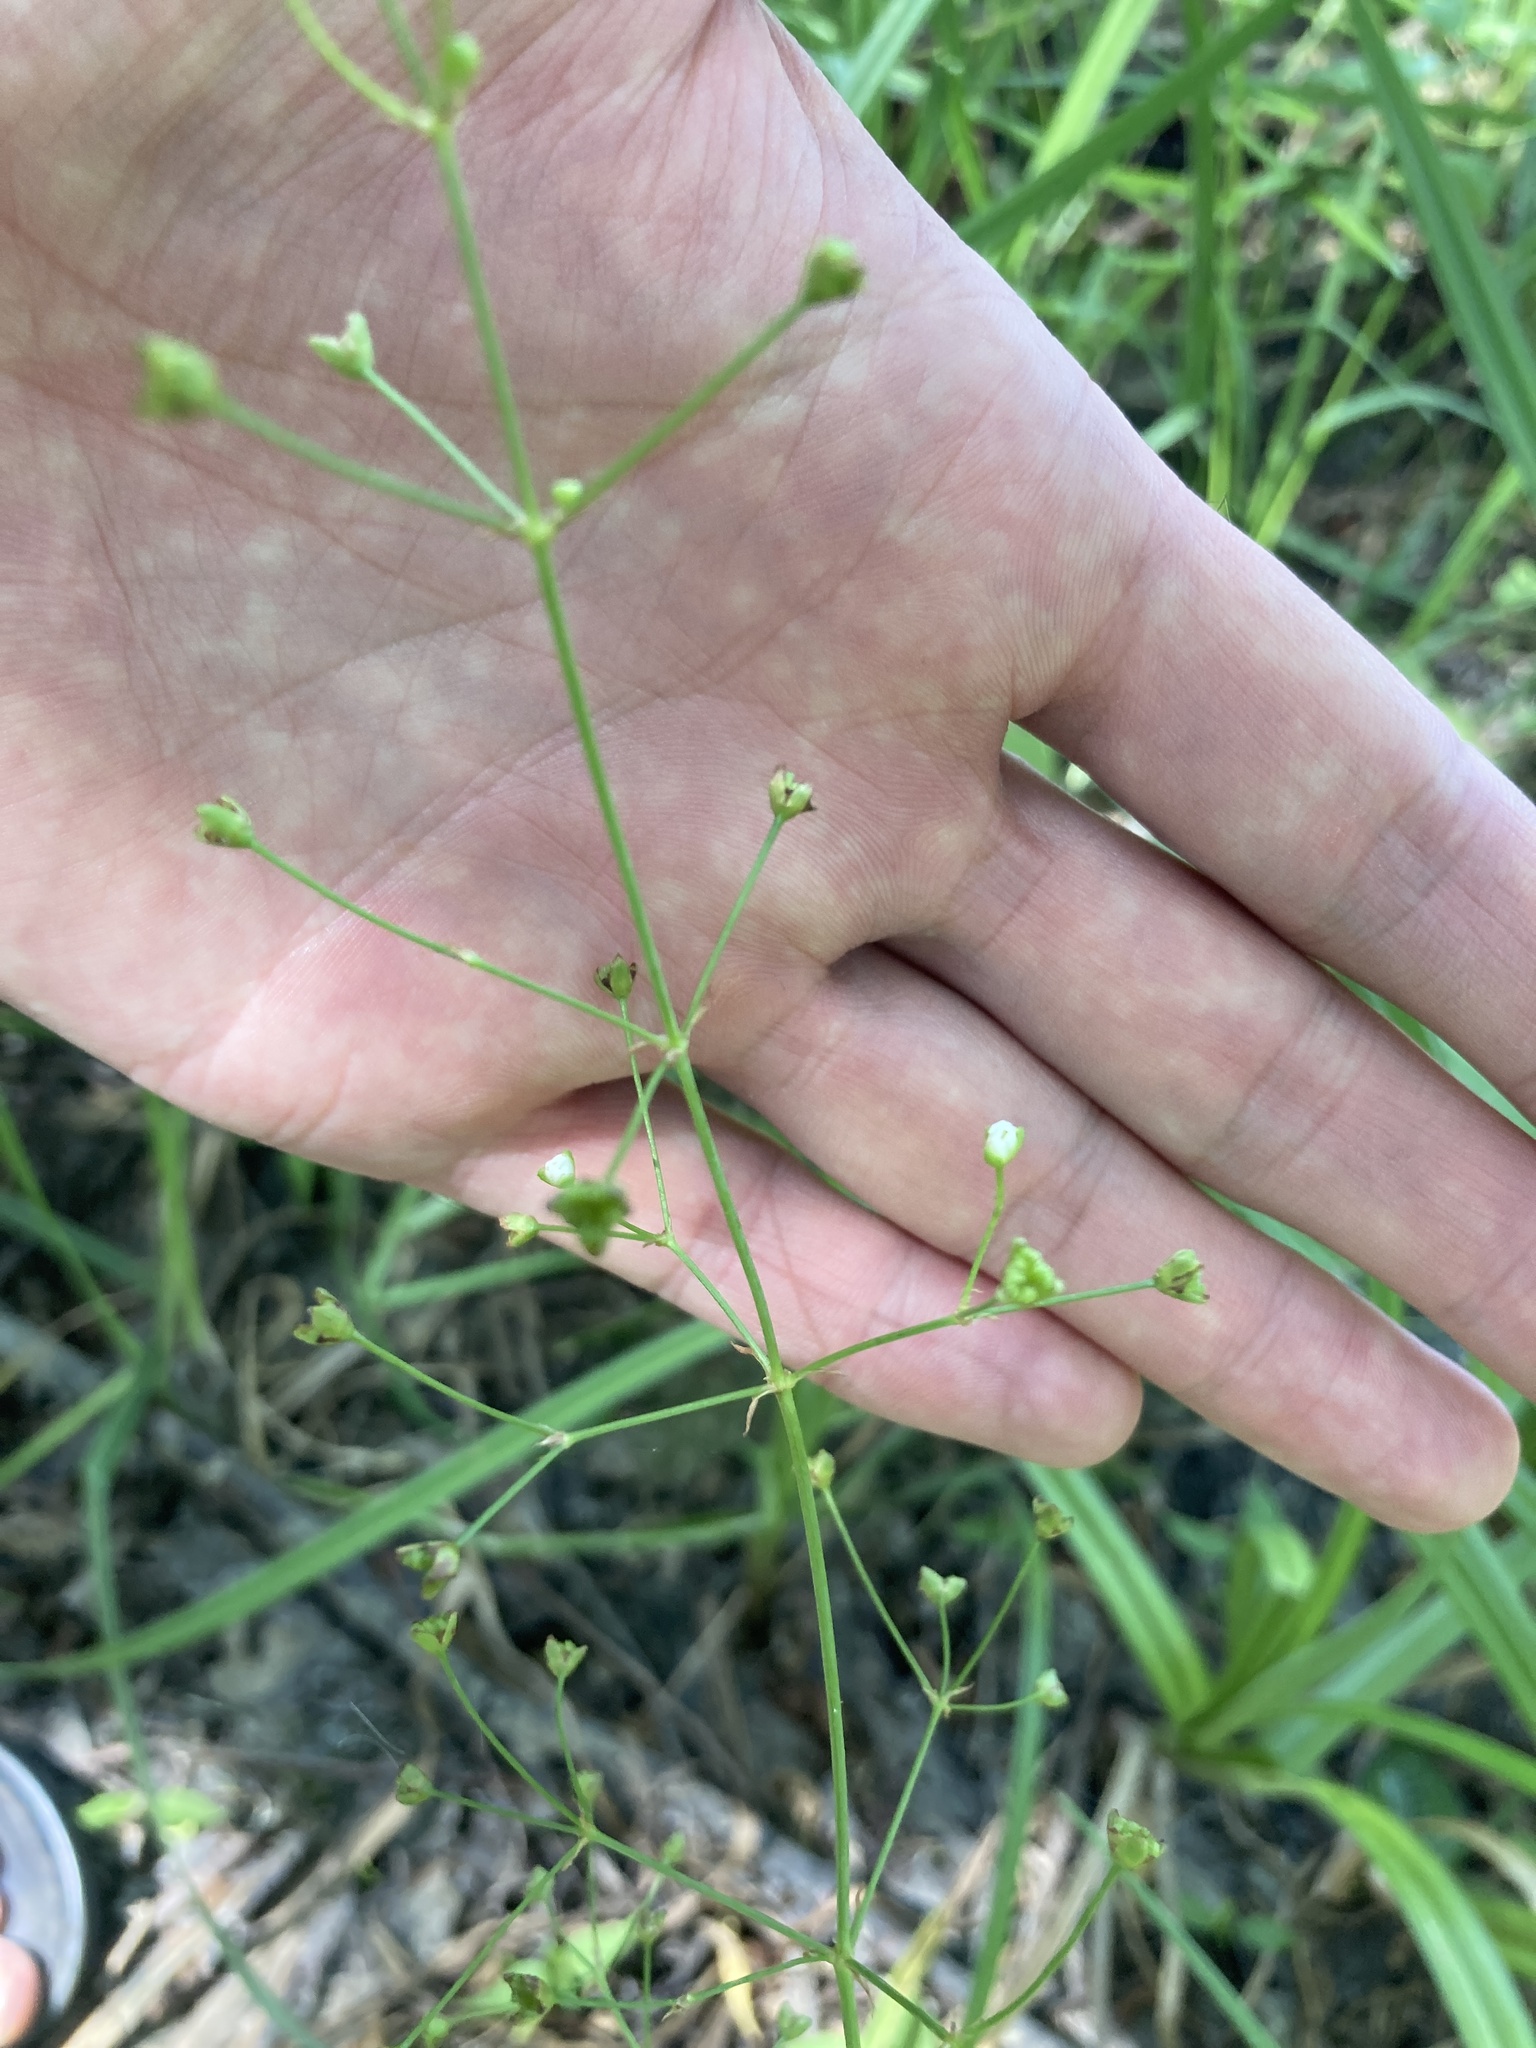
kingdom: Plantae
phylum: Tracheophyta
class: Liliopsida
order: Alismatales
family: Alismataceae
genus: Alisma
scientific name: Alisma plantago-aquatica
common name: Water-plantain
